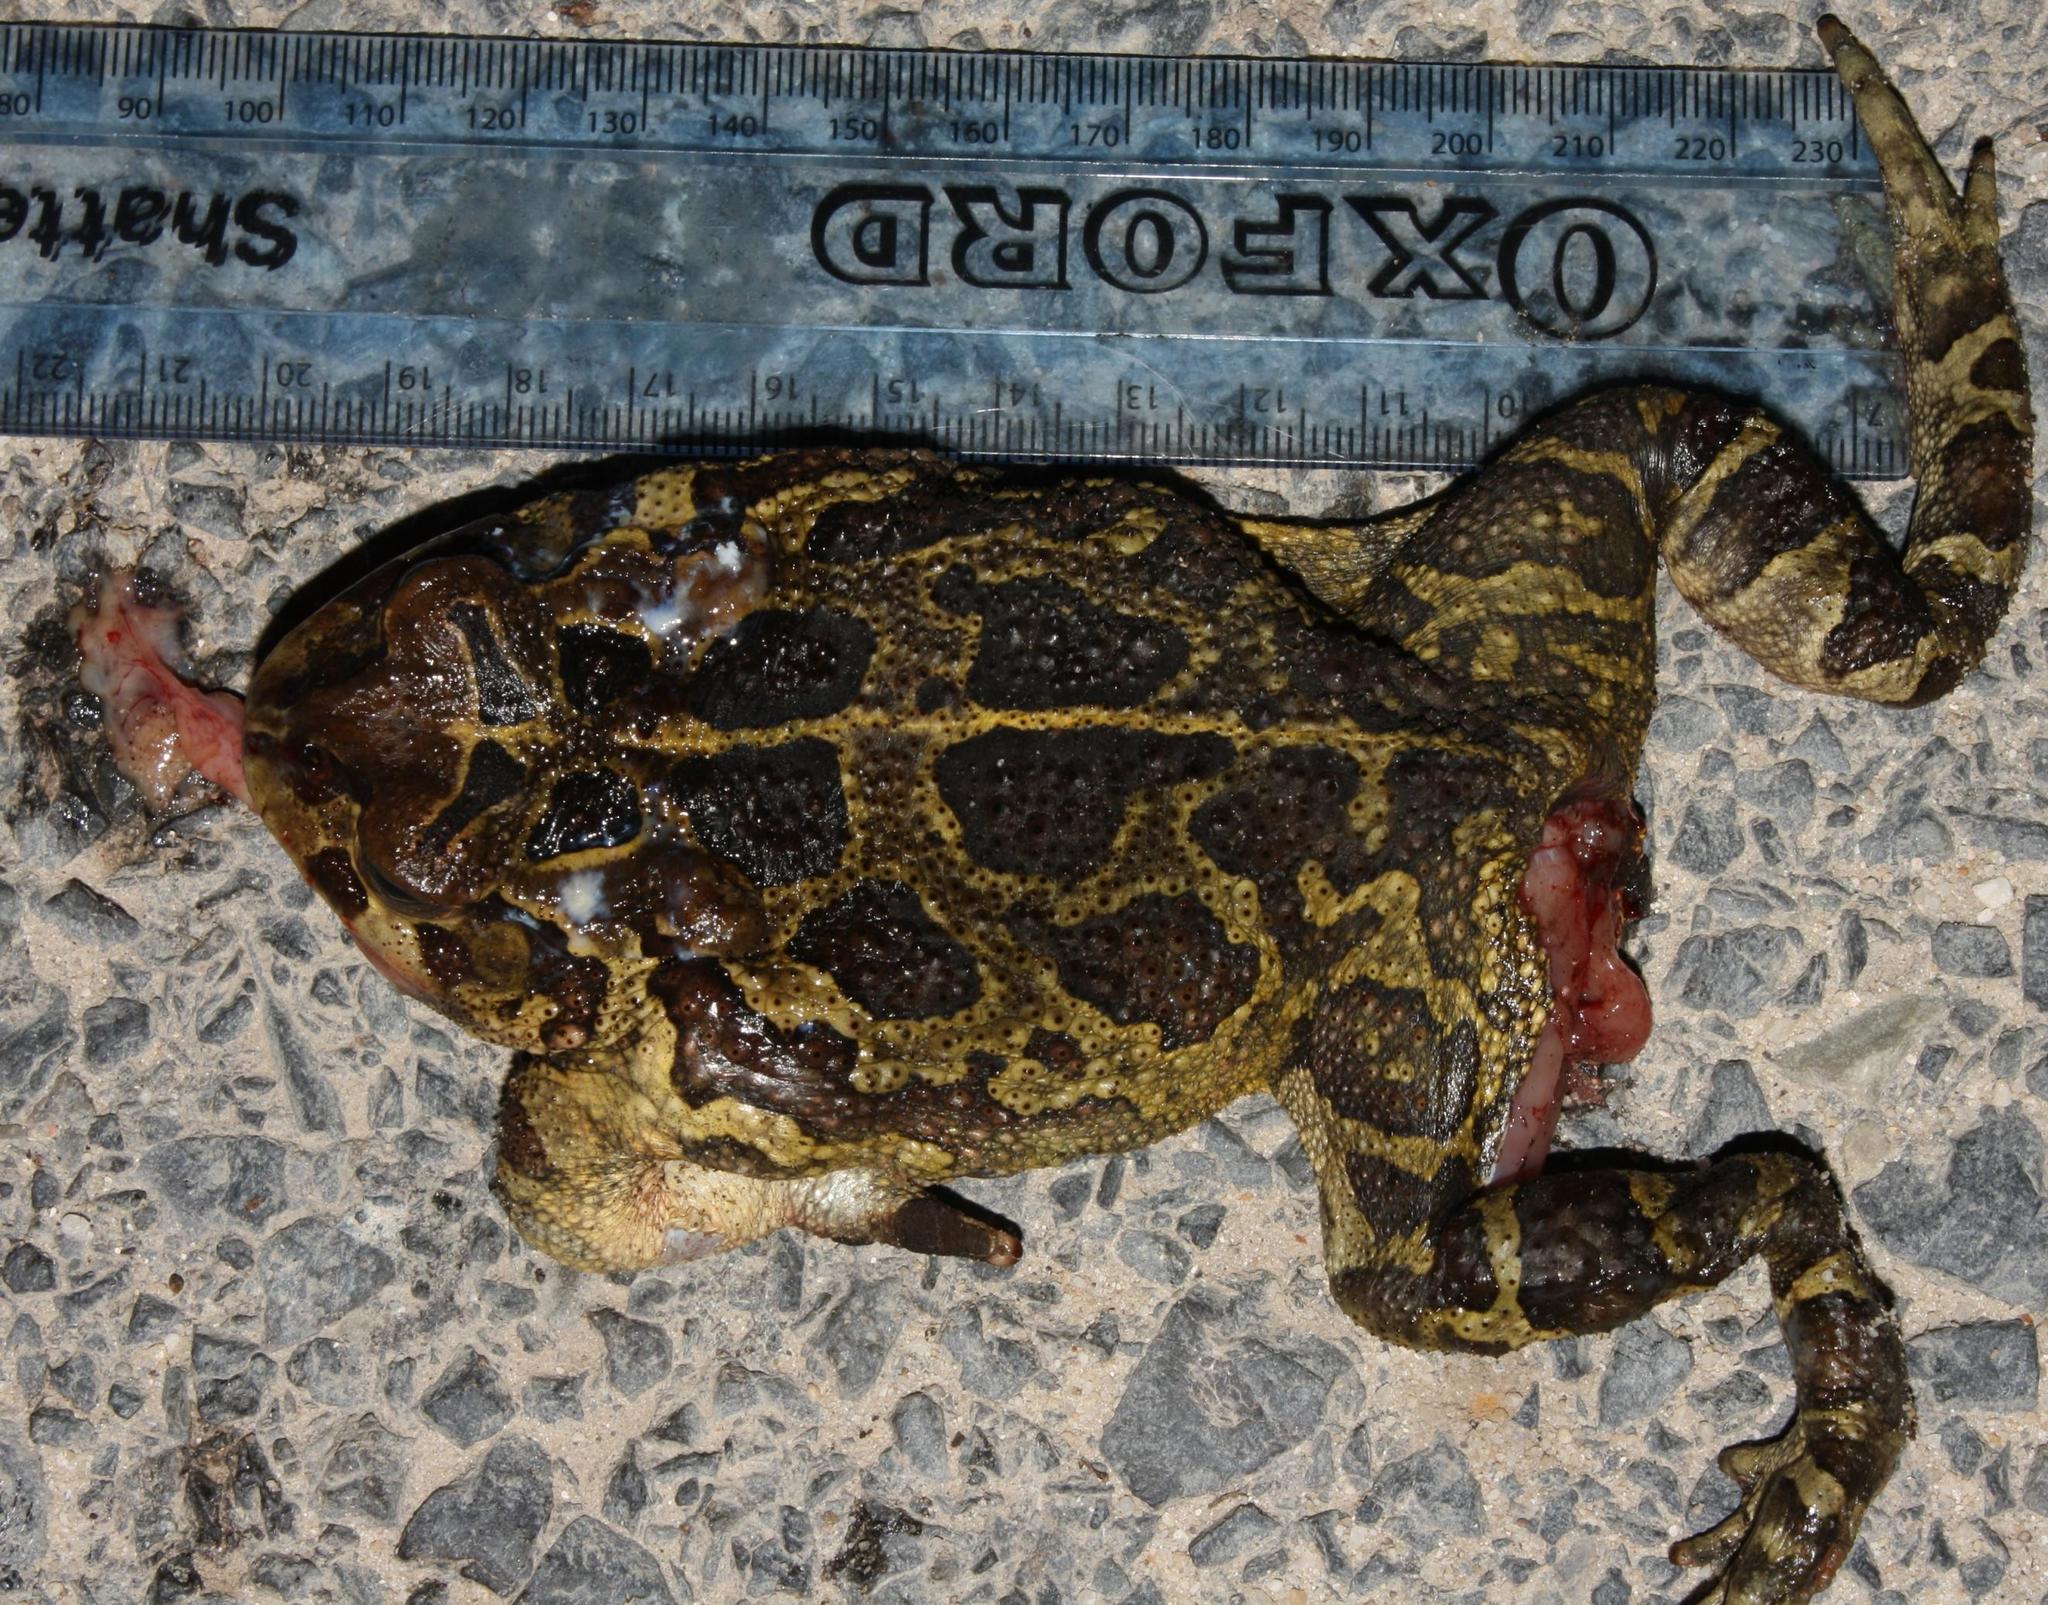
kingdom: Animalia
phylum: Chordata
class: Amphibia
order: Anura
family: Bufonidae
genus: Sclerophrys
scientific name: Sclerophrys pantherina
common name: Panther toad
